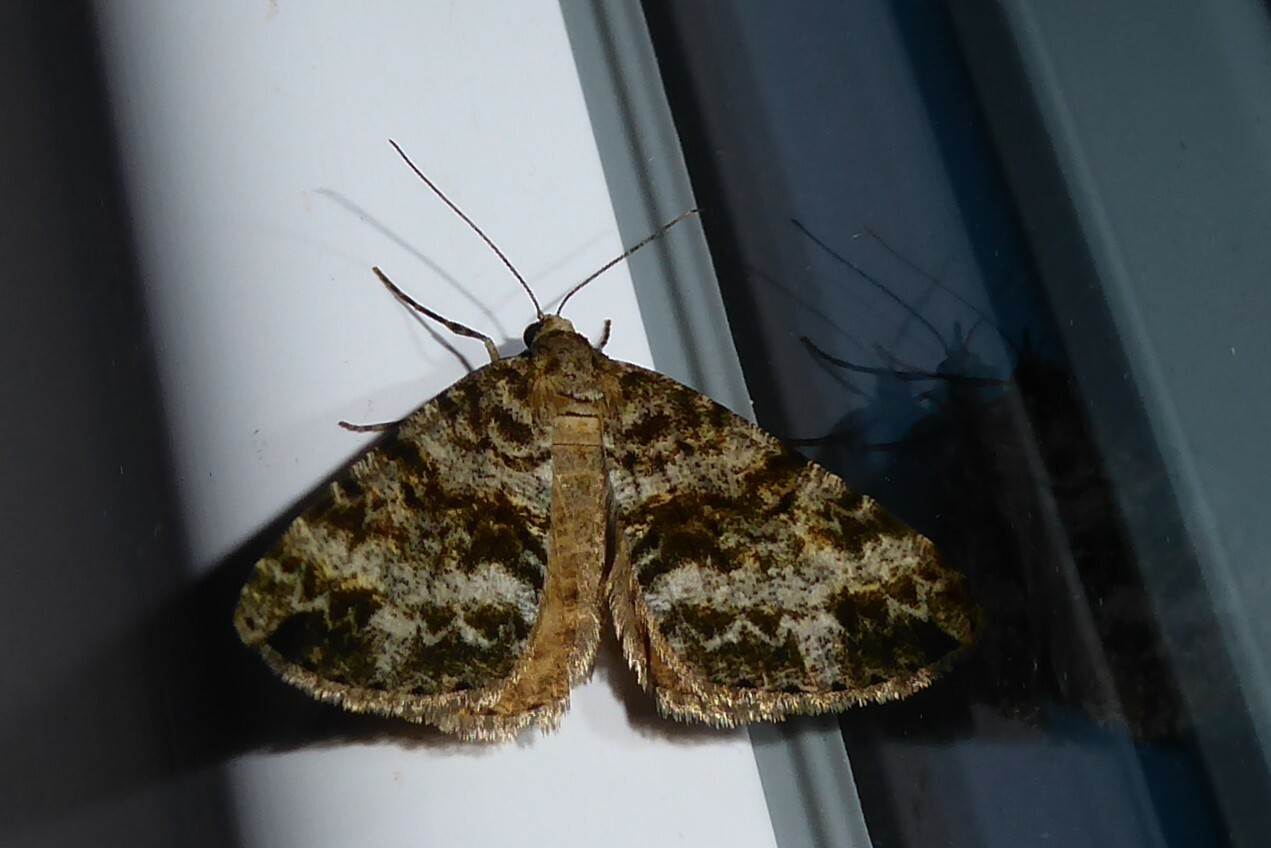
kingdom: Animalia
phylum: Arthropoda
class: Insecta
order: Lepidoptera
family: Geometridae
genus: Pseudocoremia
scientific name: Pseudocoremia lactiflua
